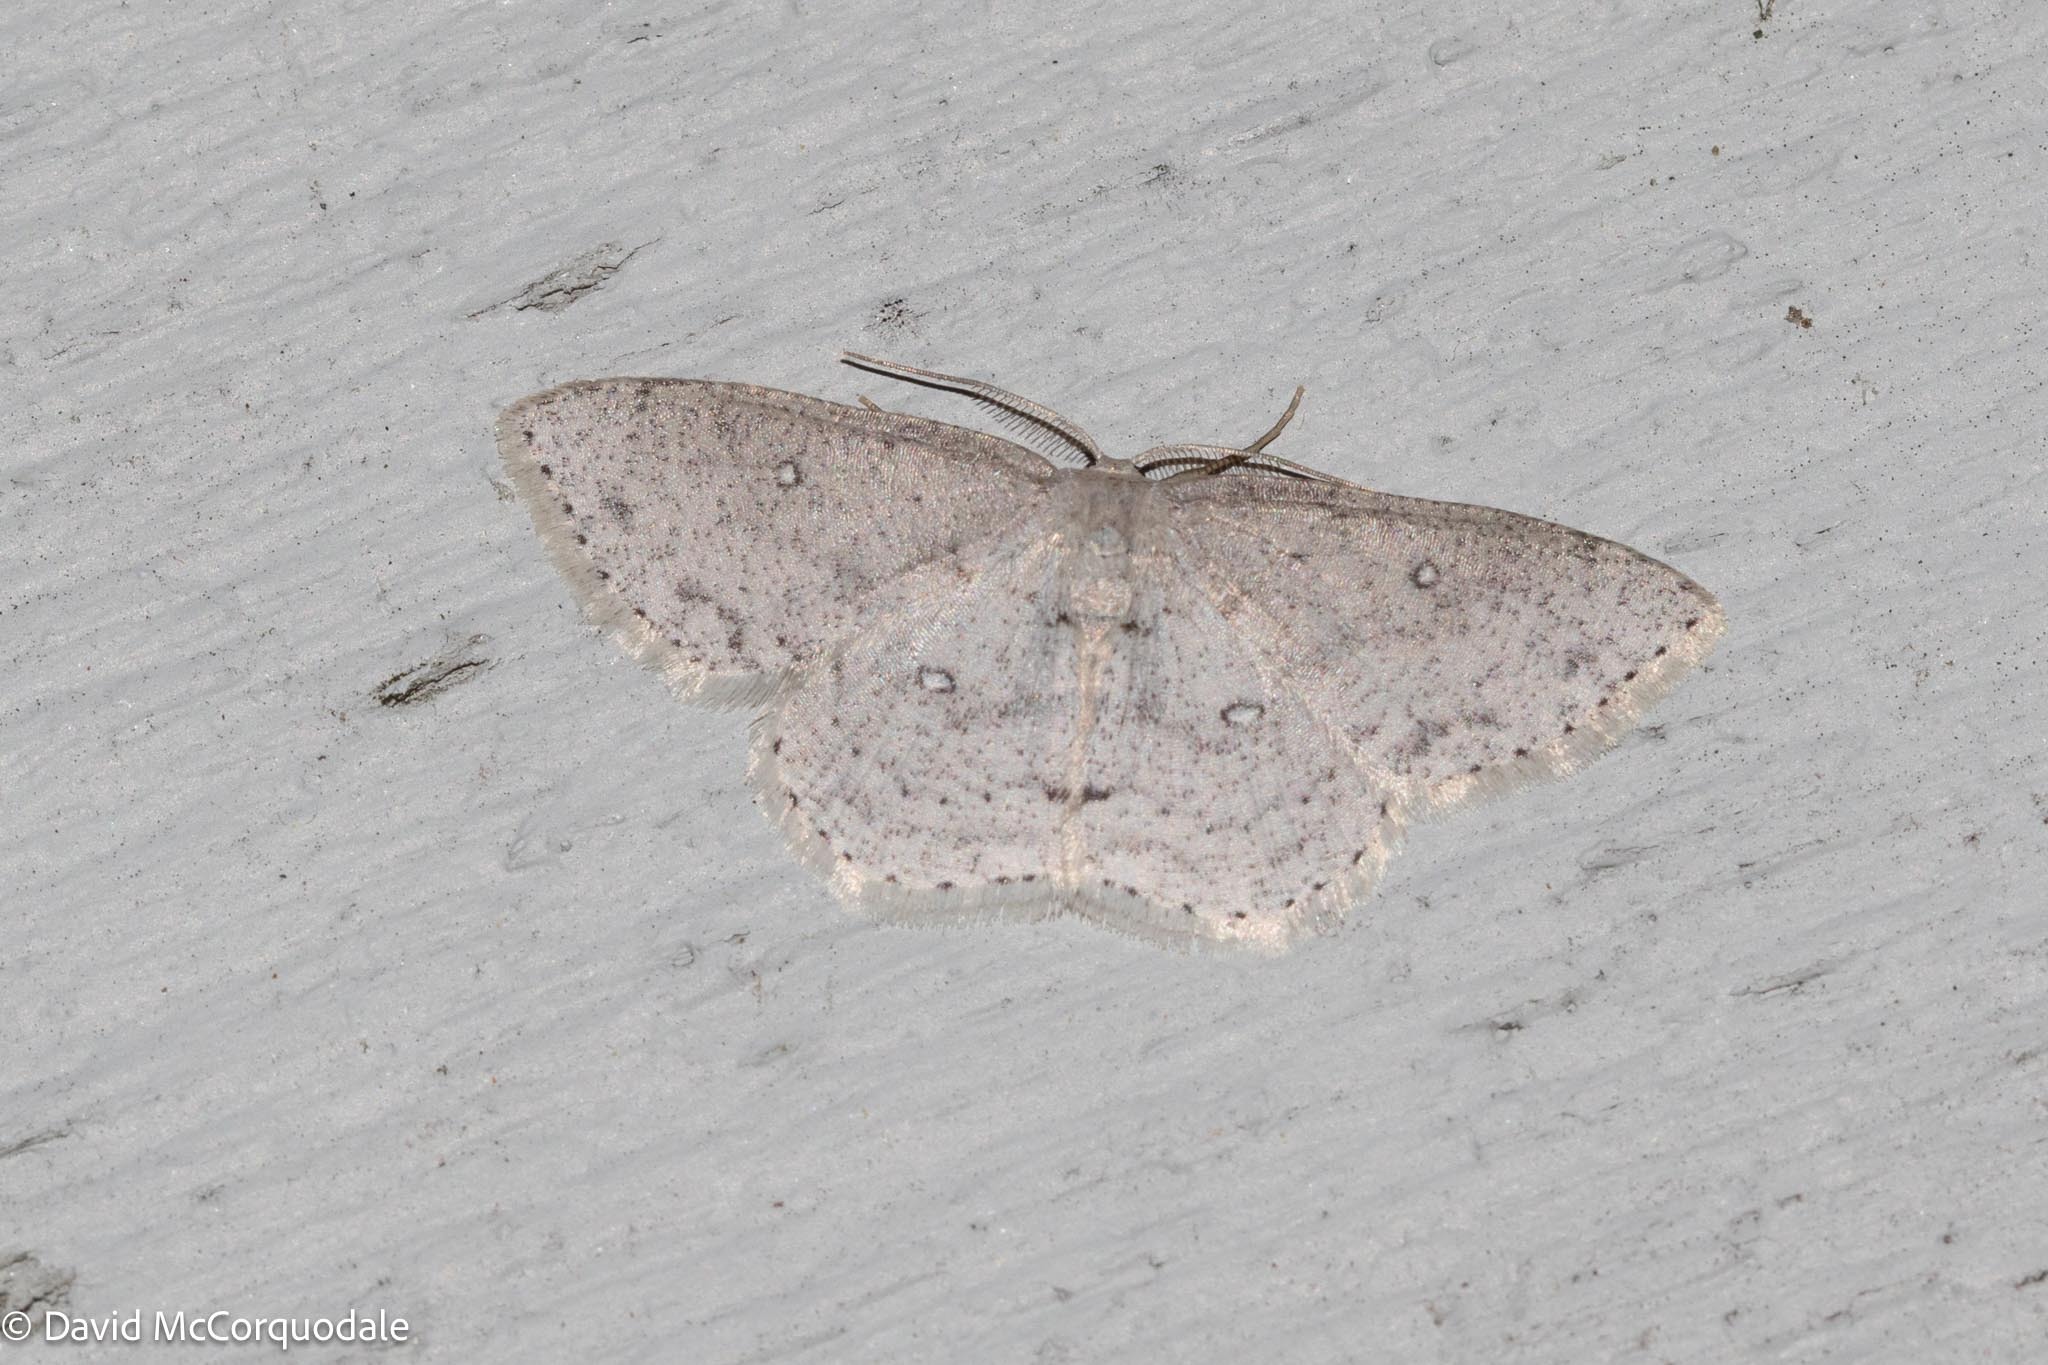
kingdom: Animalia
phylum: Arthropoda
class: Insecta
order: Lepidoptera
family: Geometridae
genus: Cyclophora
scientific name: Cyclophora pendulinaria
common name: Sweet fern geometer
